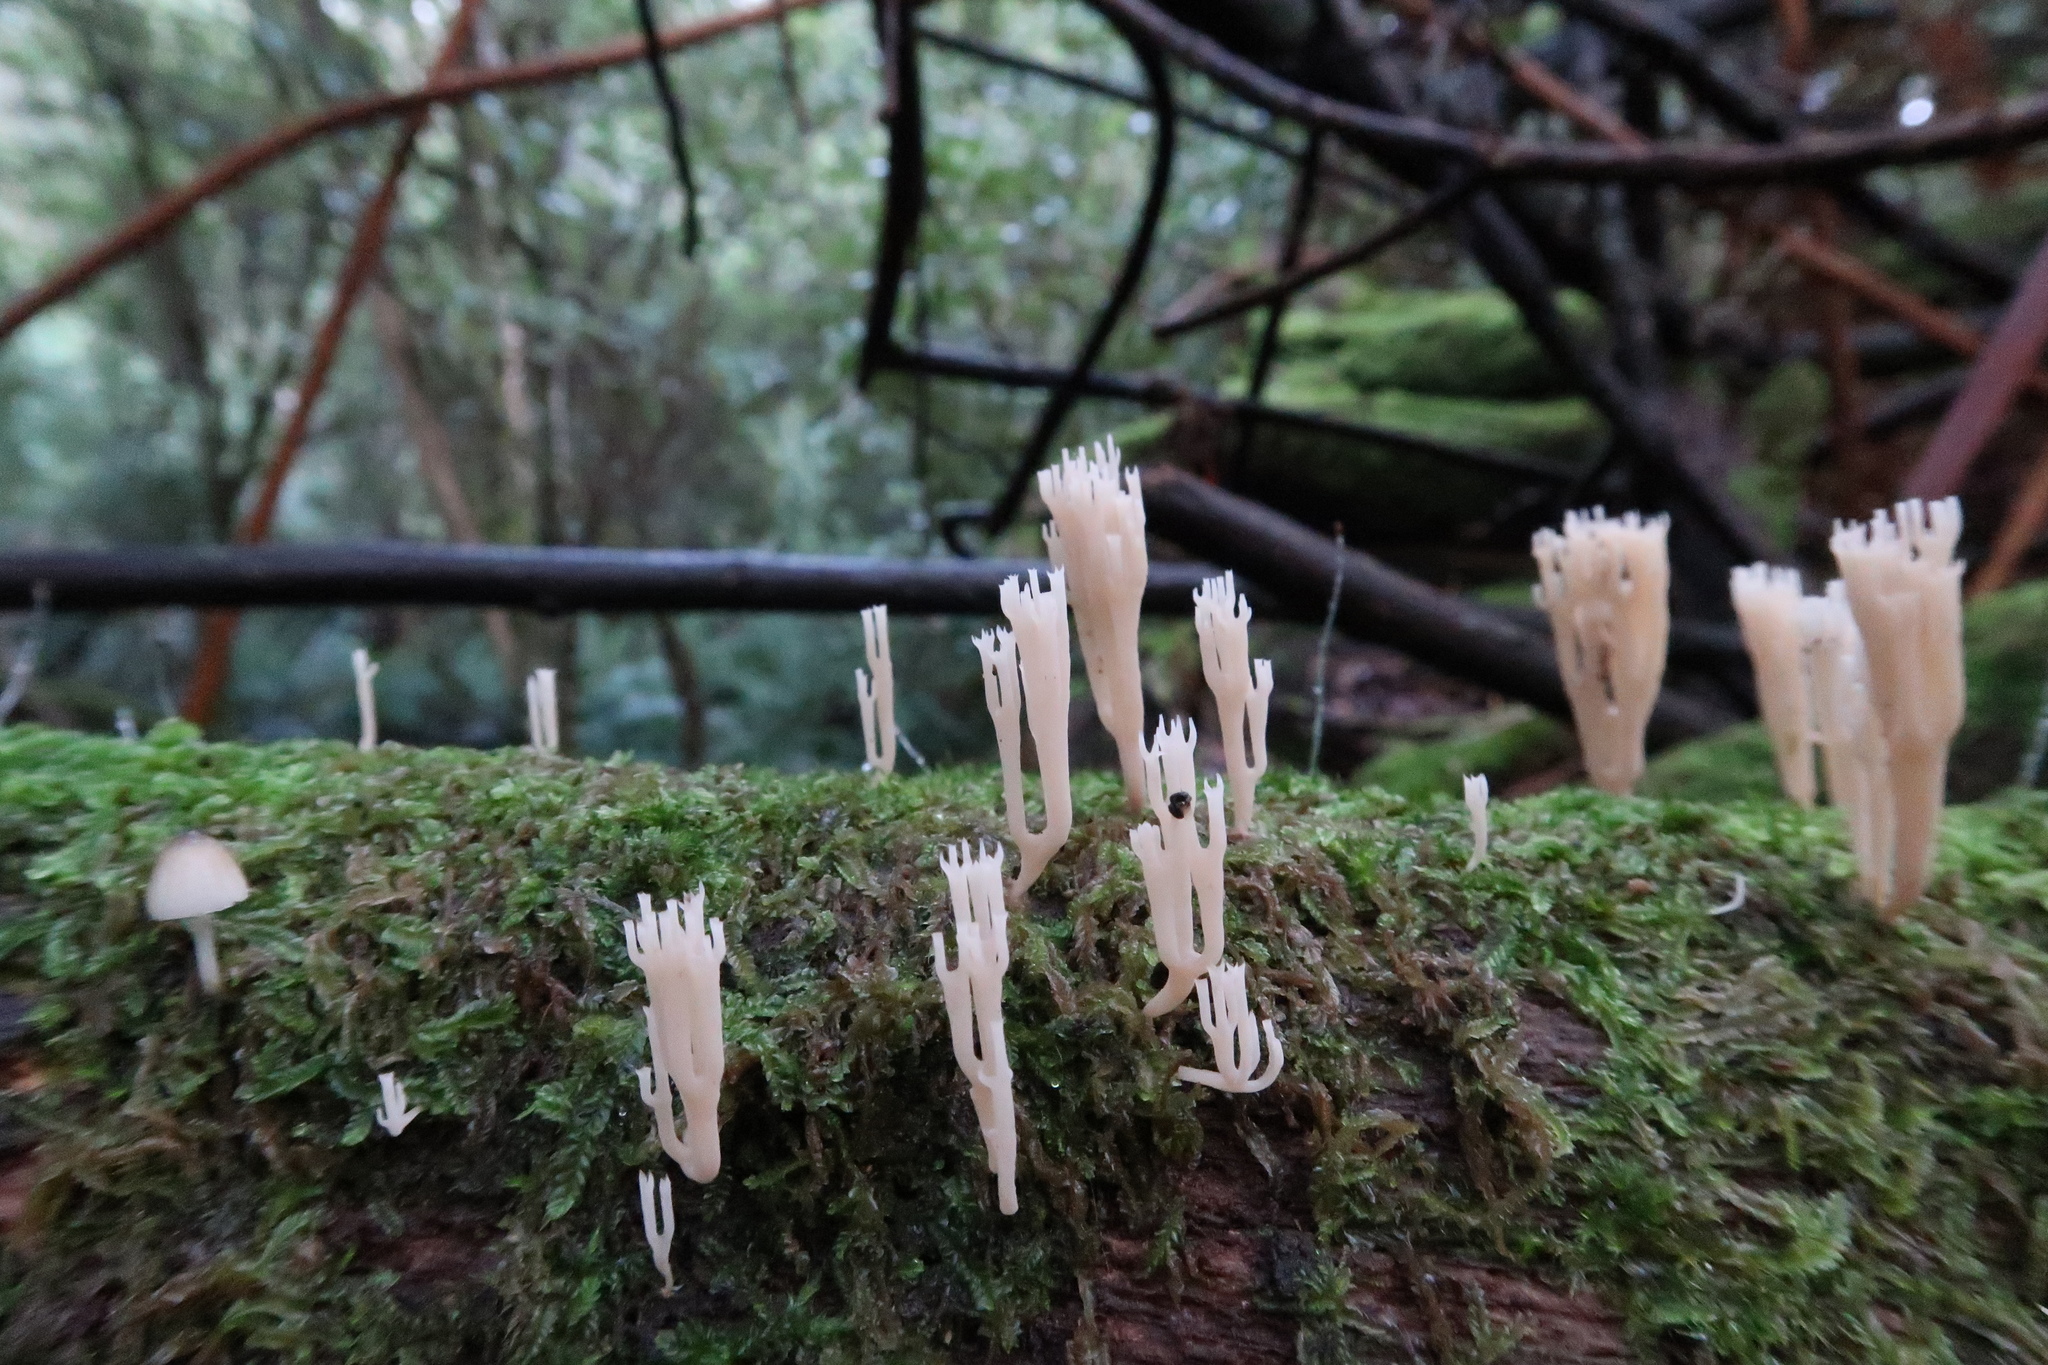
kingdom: Fungi
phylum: Basidiomycota
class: Agaricomycetes
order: Russulales
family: Auriscalpiaceae
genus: Artomyces
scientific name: Artomyces austropiperatus
